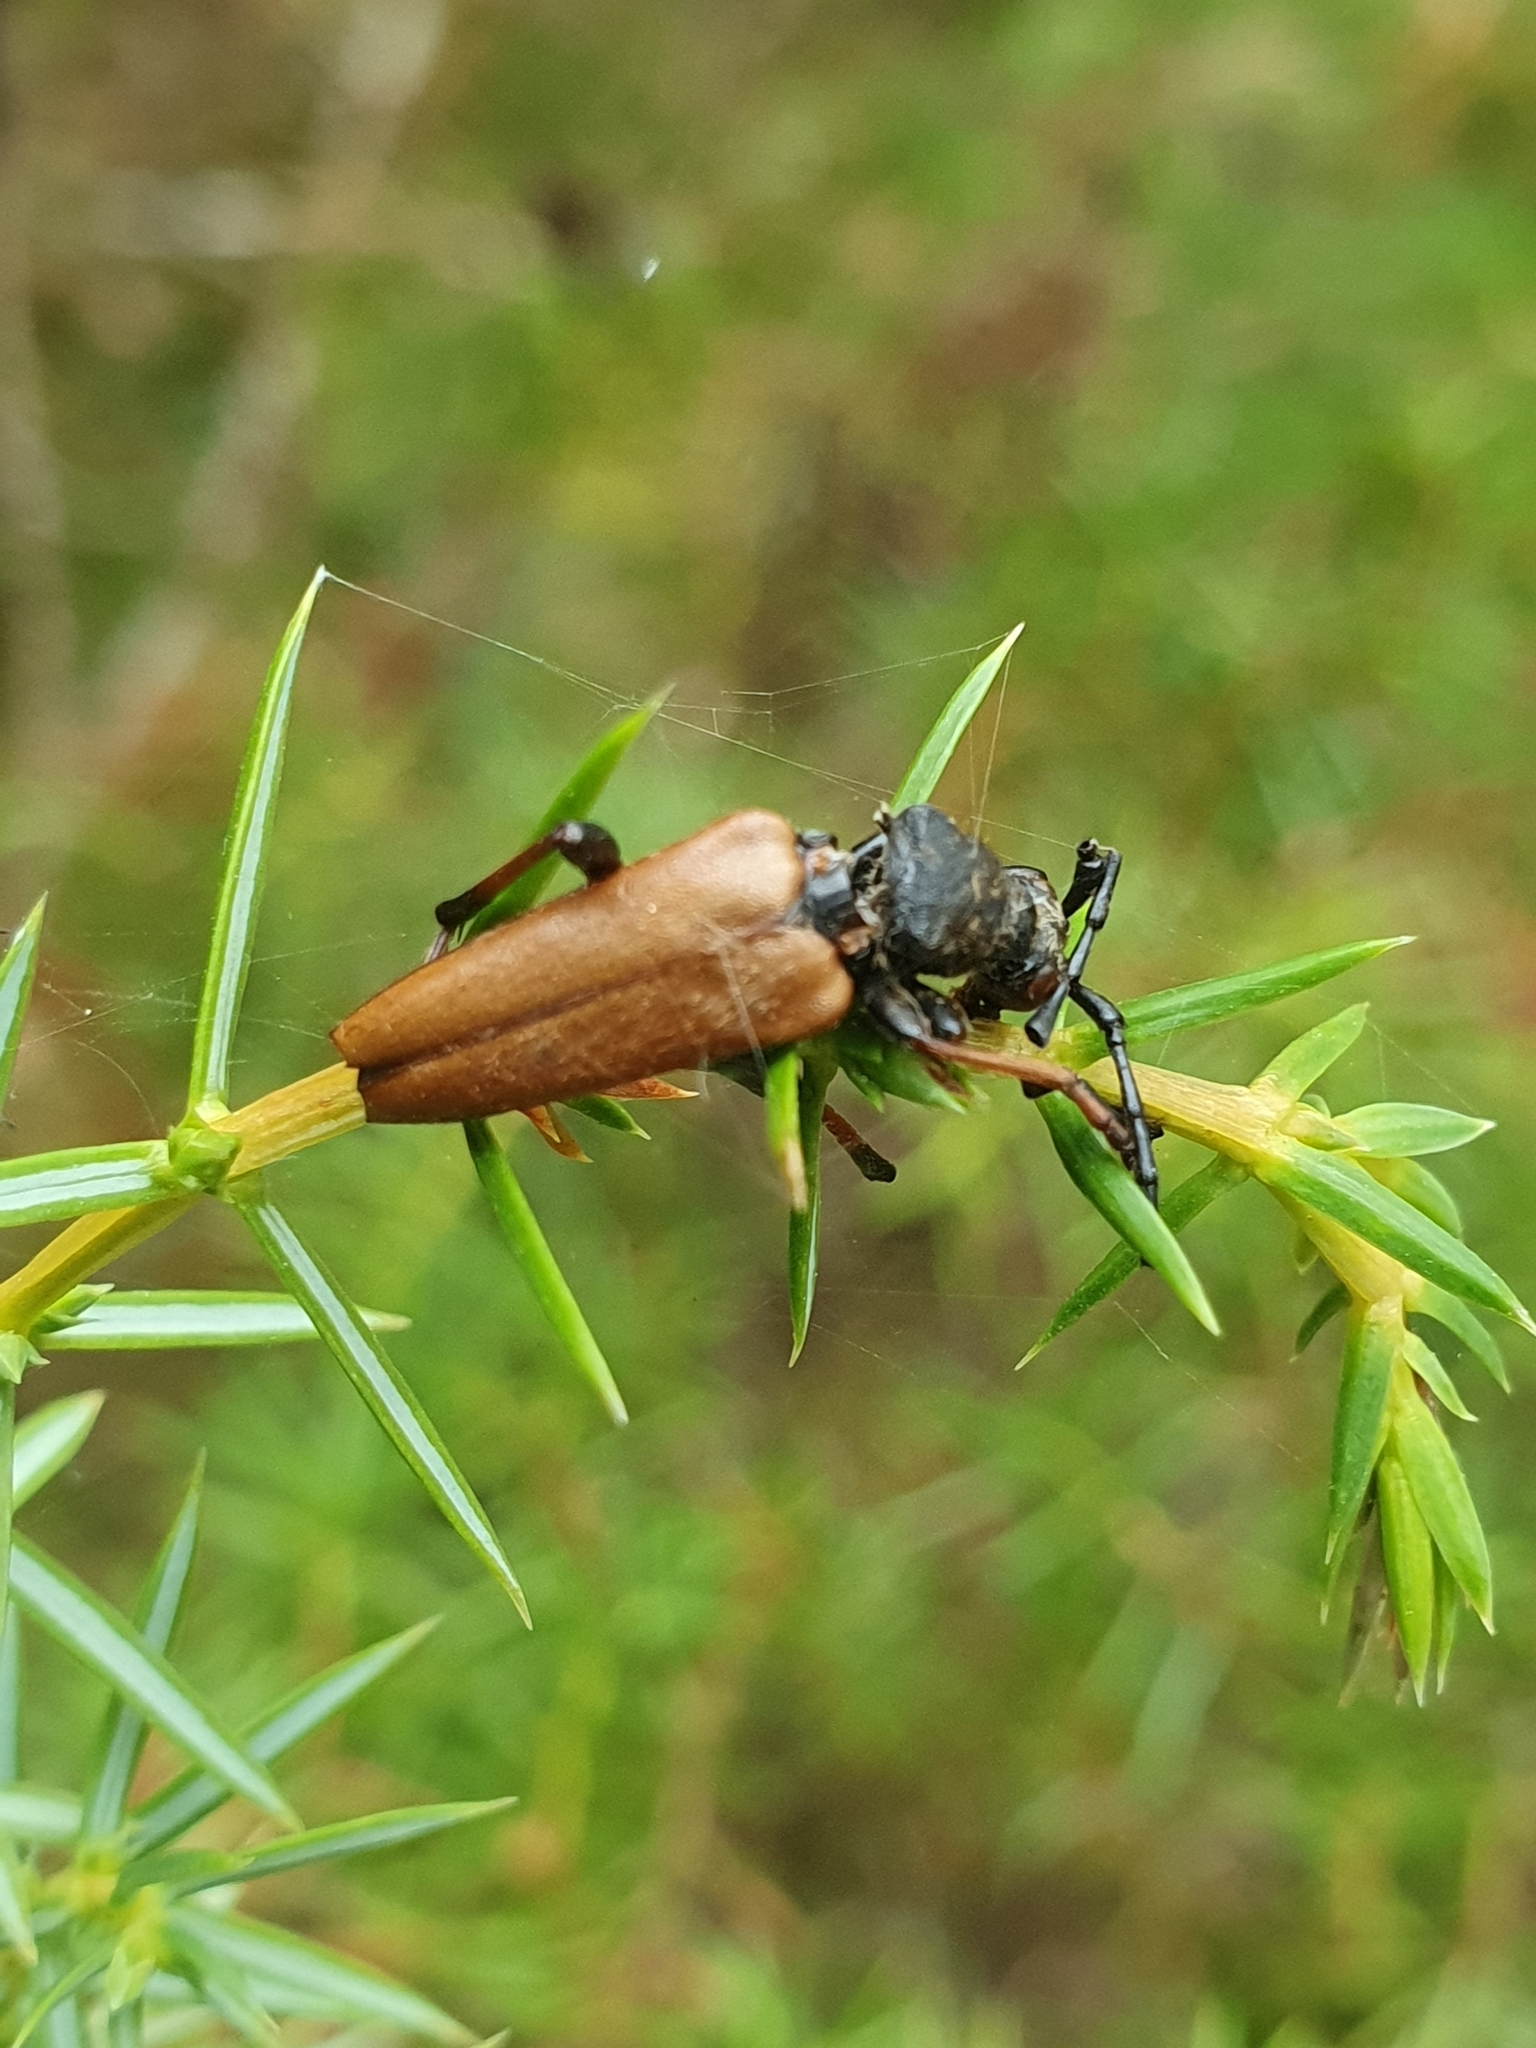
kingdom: Animalia
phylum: Arthropoda
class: Insecta
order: Coleoptera
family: Cerambycidae
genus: Stictoleptura
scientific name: Stictoleptura rubra
